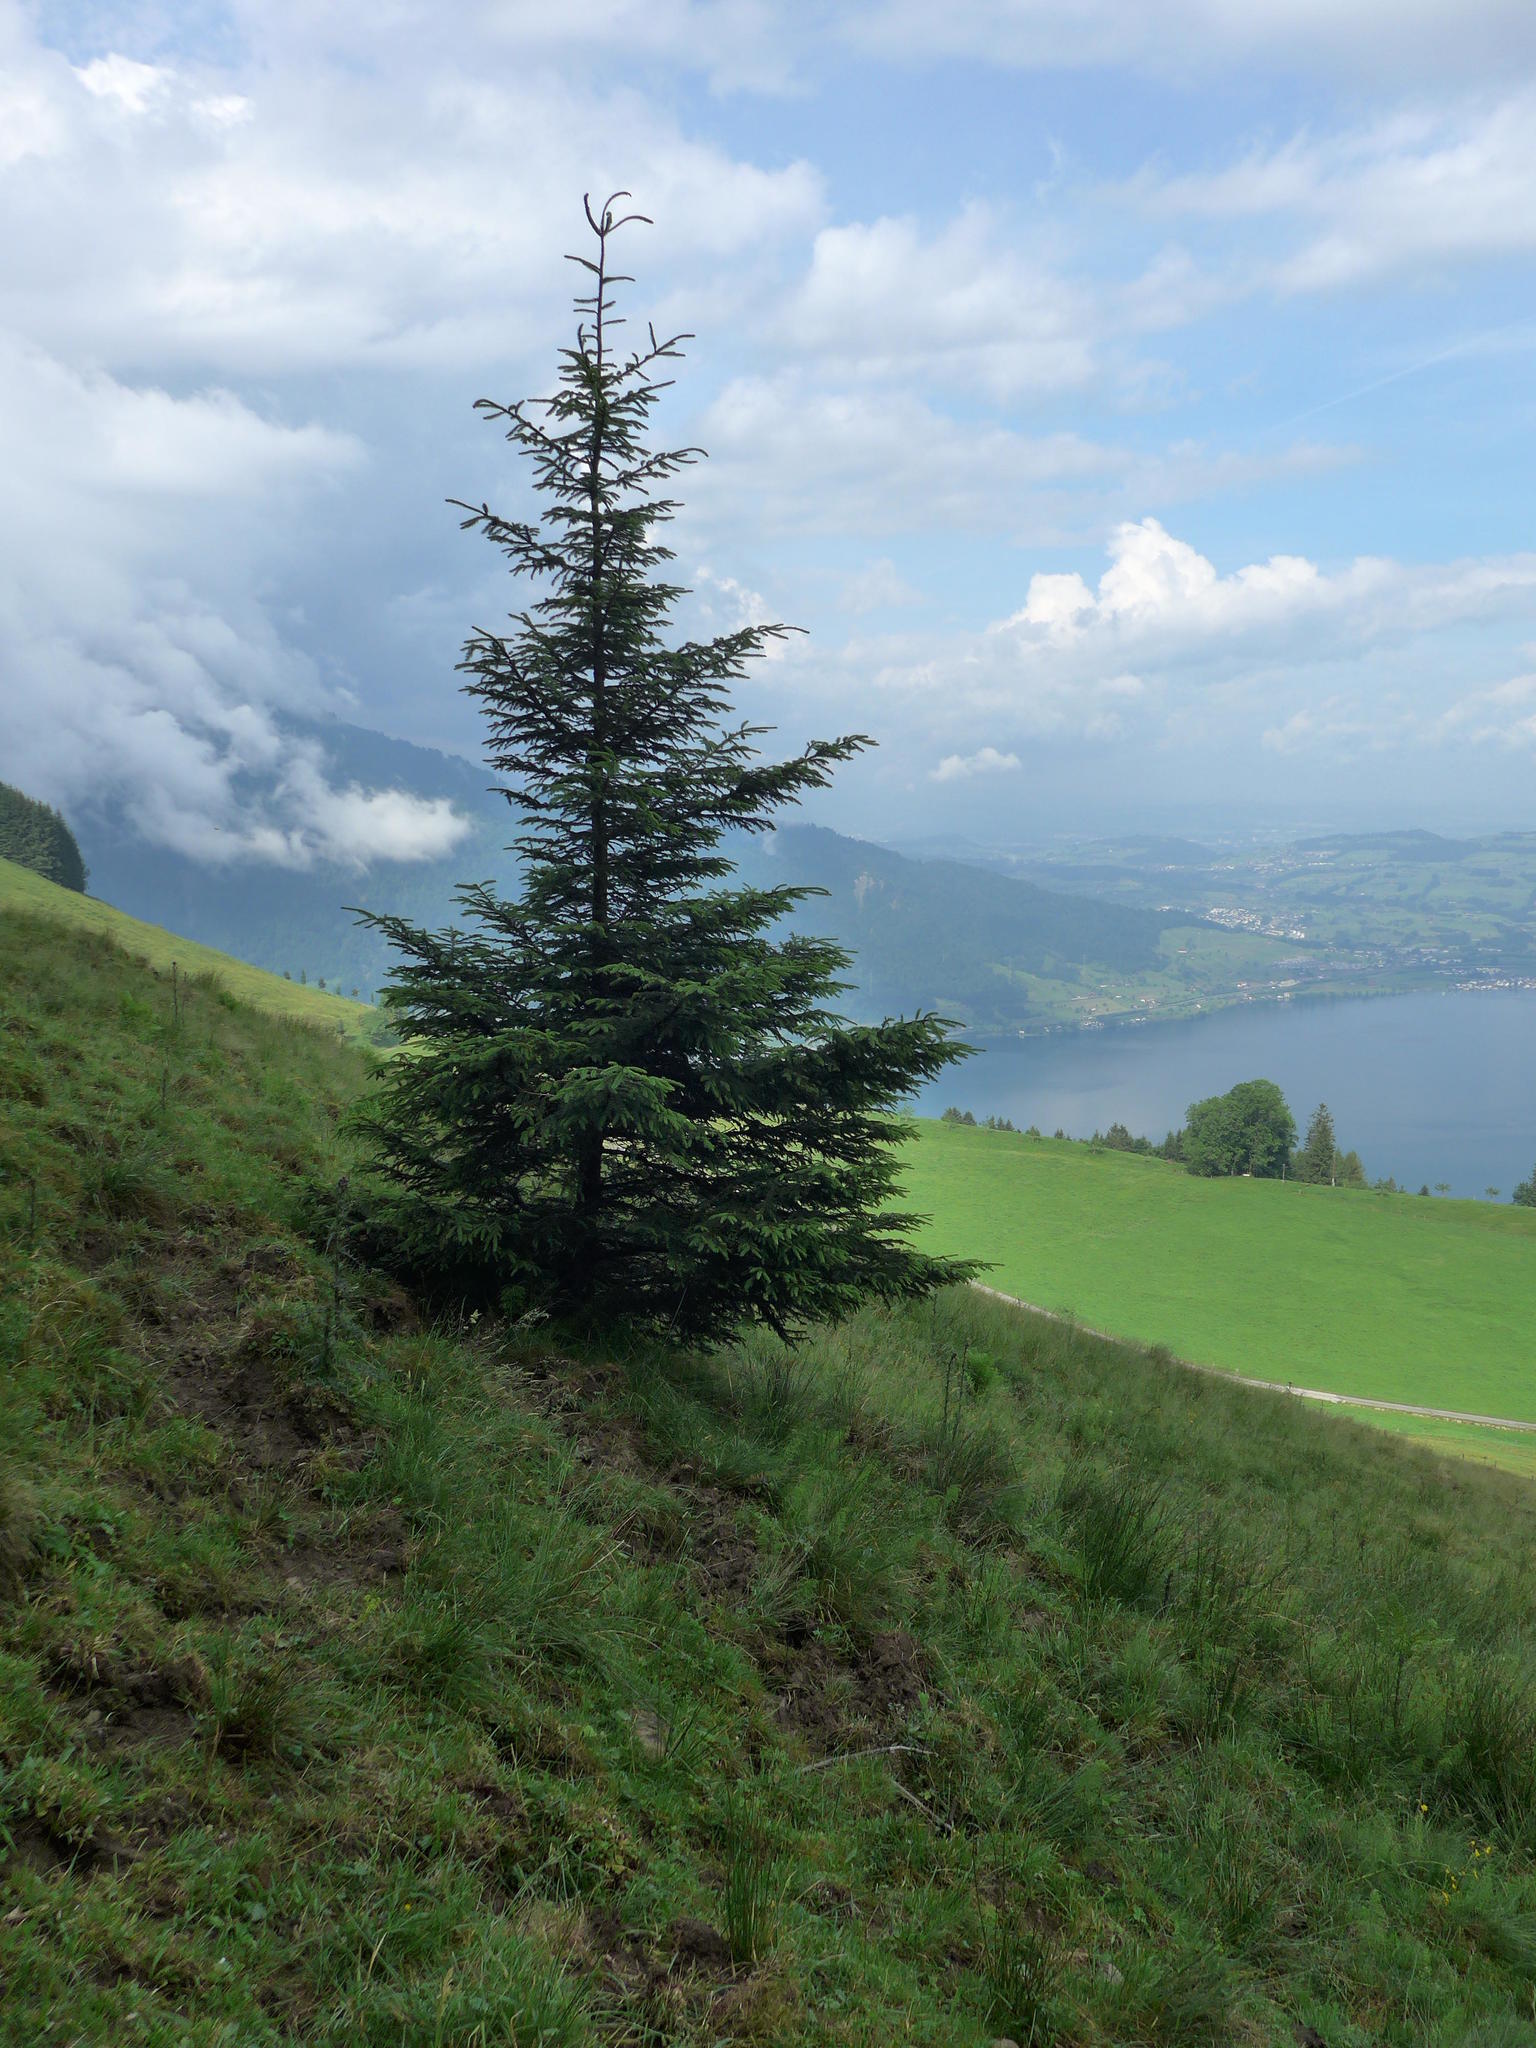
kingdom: Plantae
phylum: Tracheophyta
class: Pinopsida
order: Pinales
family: Pinaceae
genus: Picea
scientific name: Picea abies
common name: Norway spruce
